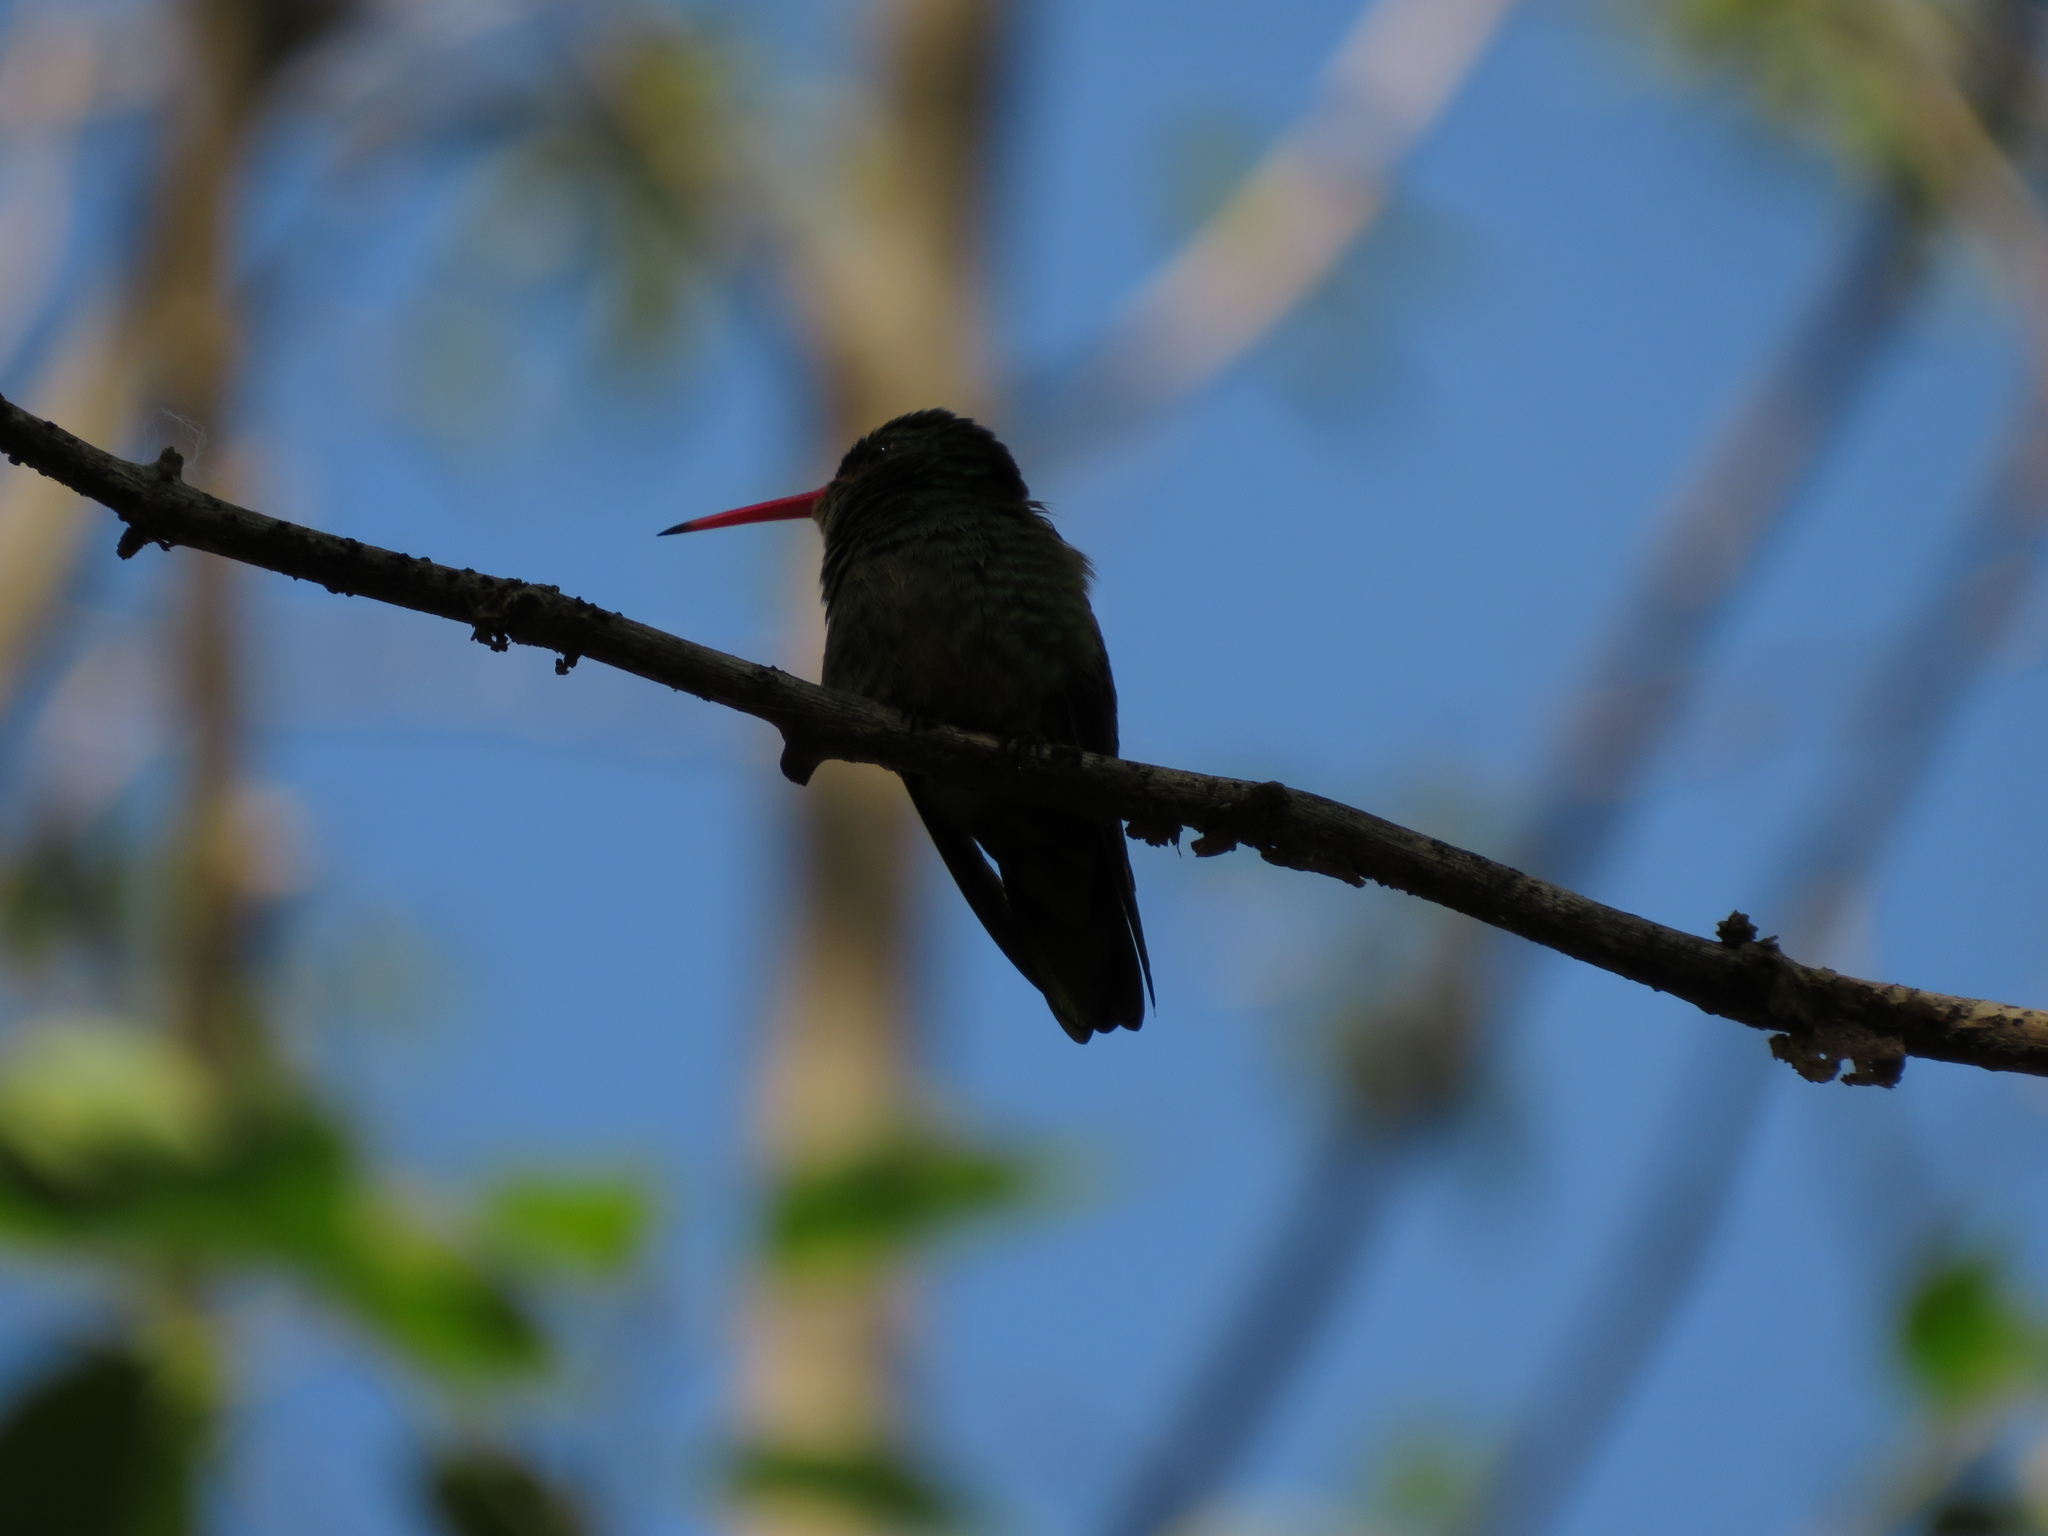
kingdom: Animalia
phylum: Chordata
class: Aves
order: Apodiformes
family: Trochilidae
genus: Hylocharis
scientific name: Hylocharis chrysura
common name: Gilded sapphire
